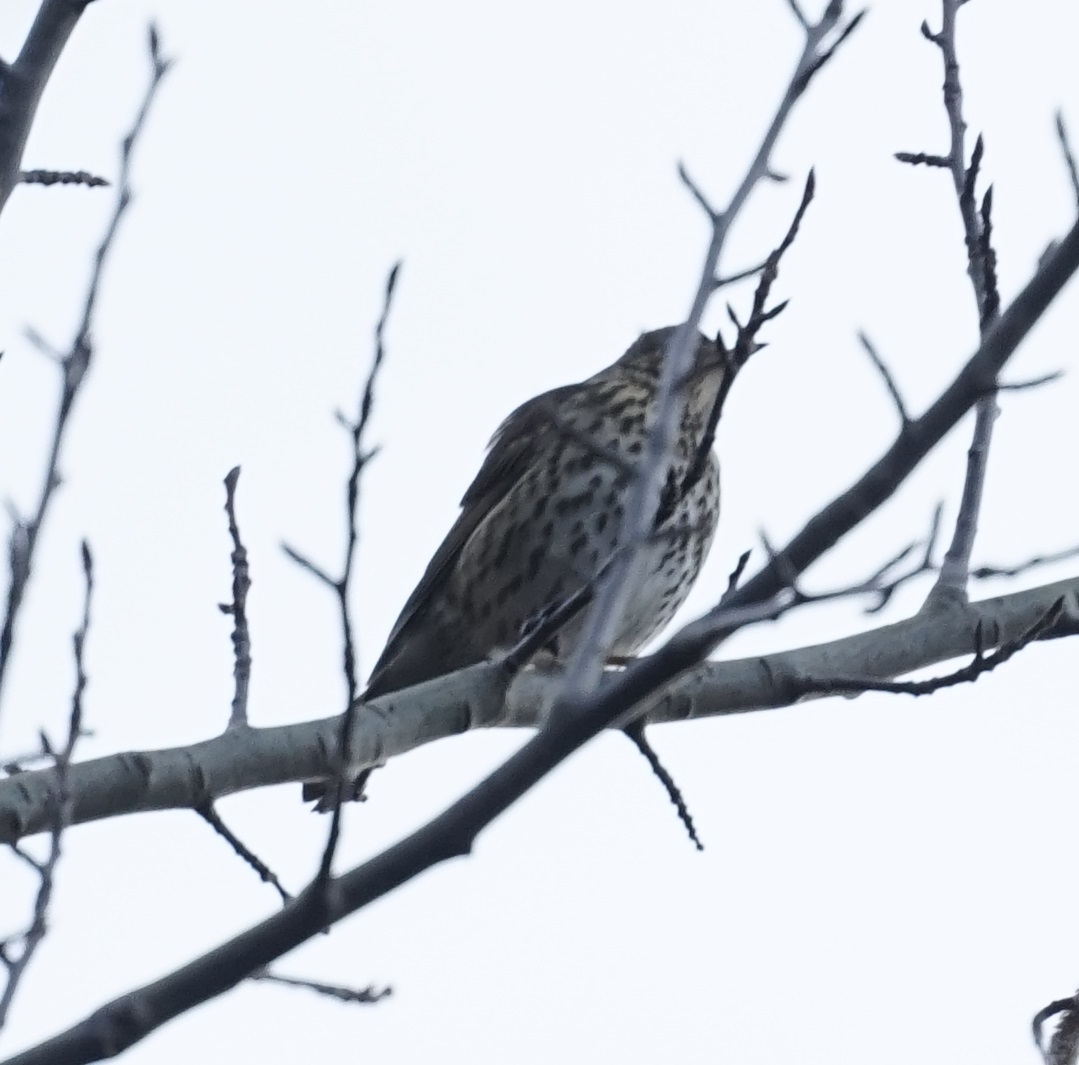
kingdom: Animalia
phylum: Chordata
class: Aves
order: Passeriformes
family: Turdidae
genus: Turdus
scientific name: Turdus philomelos
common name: Song thrush
